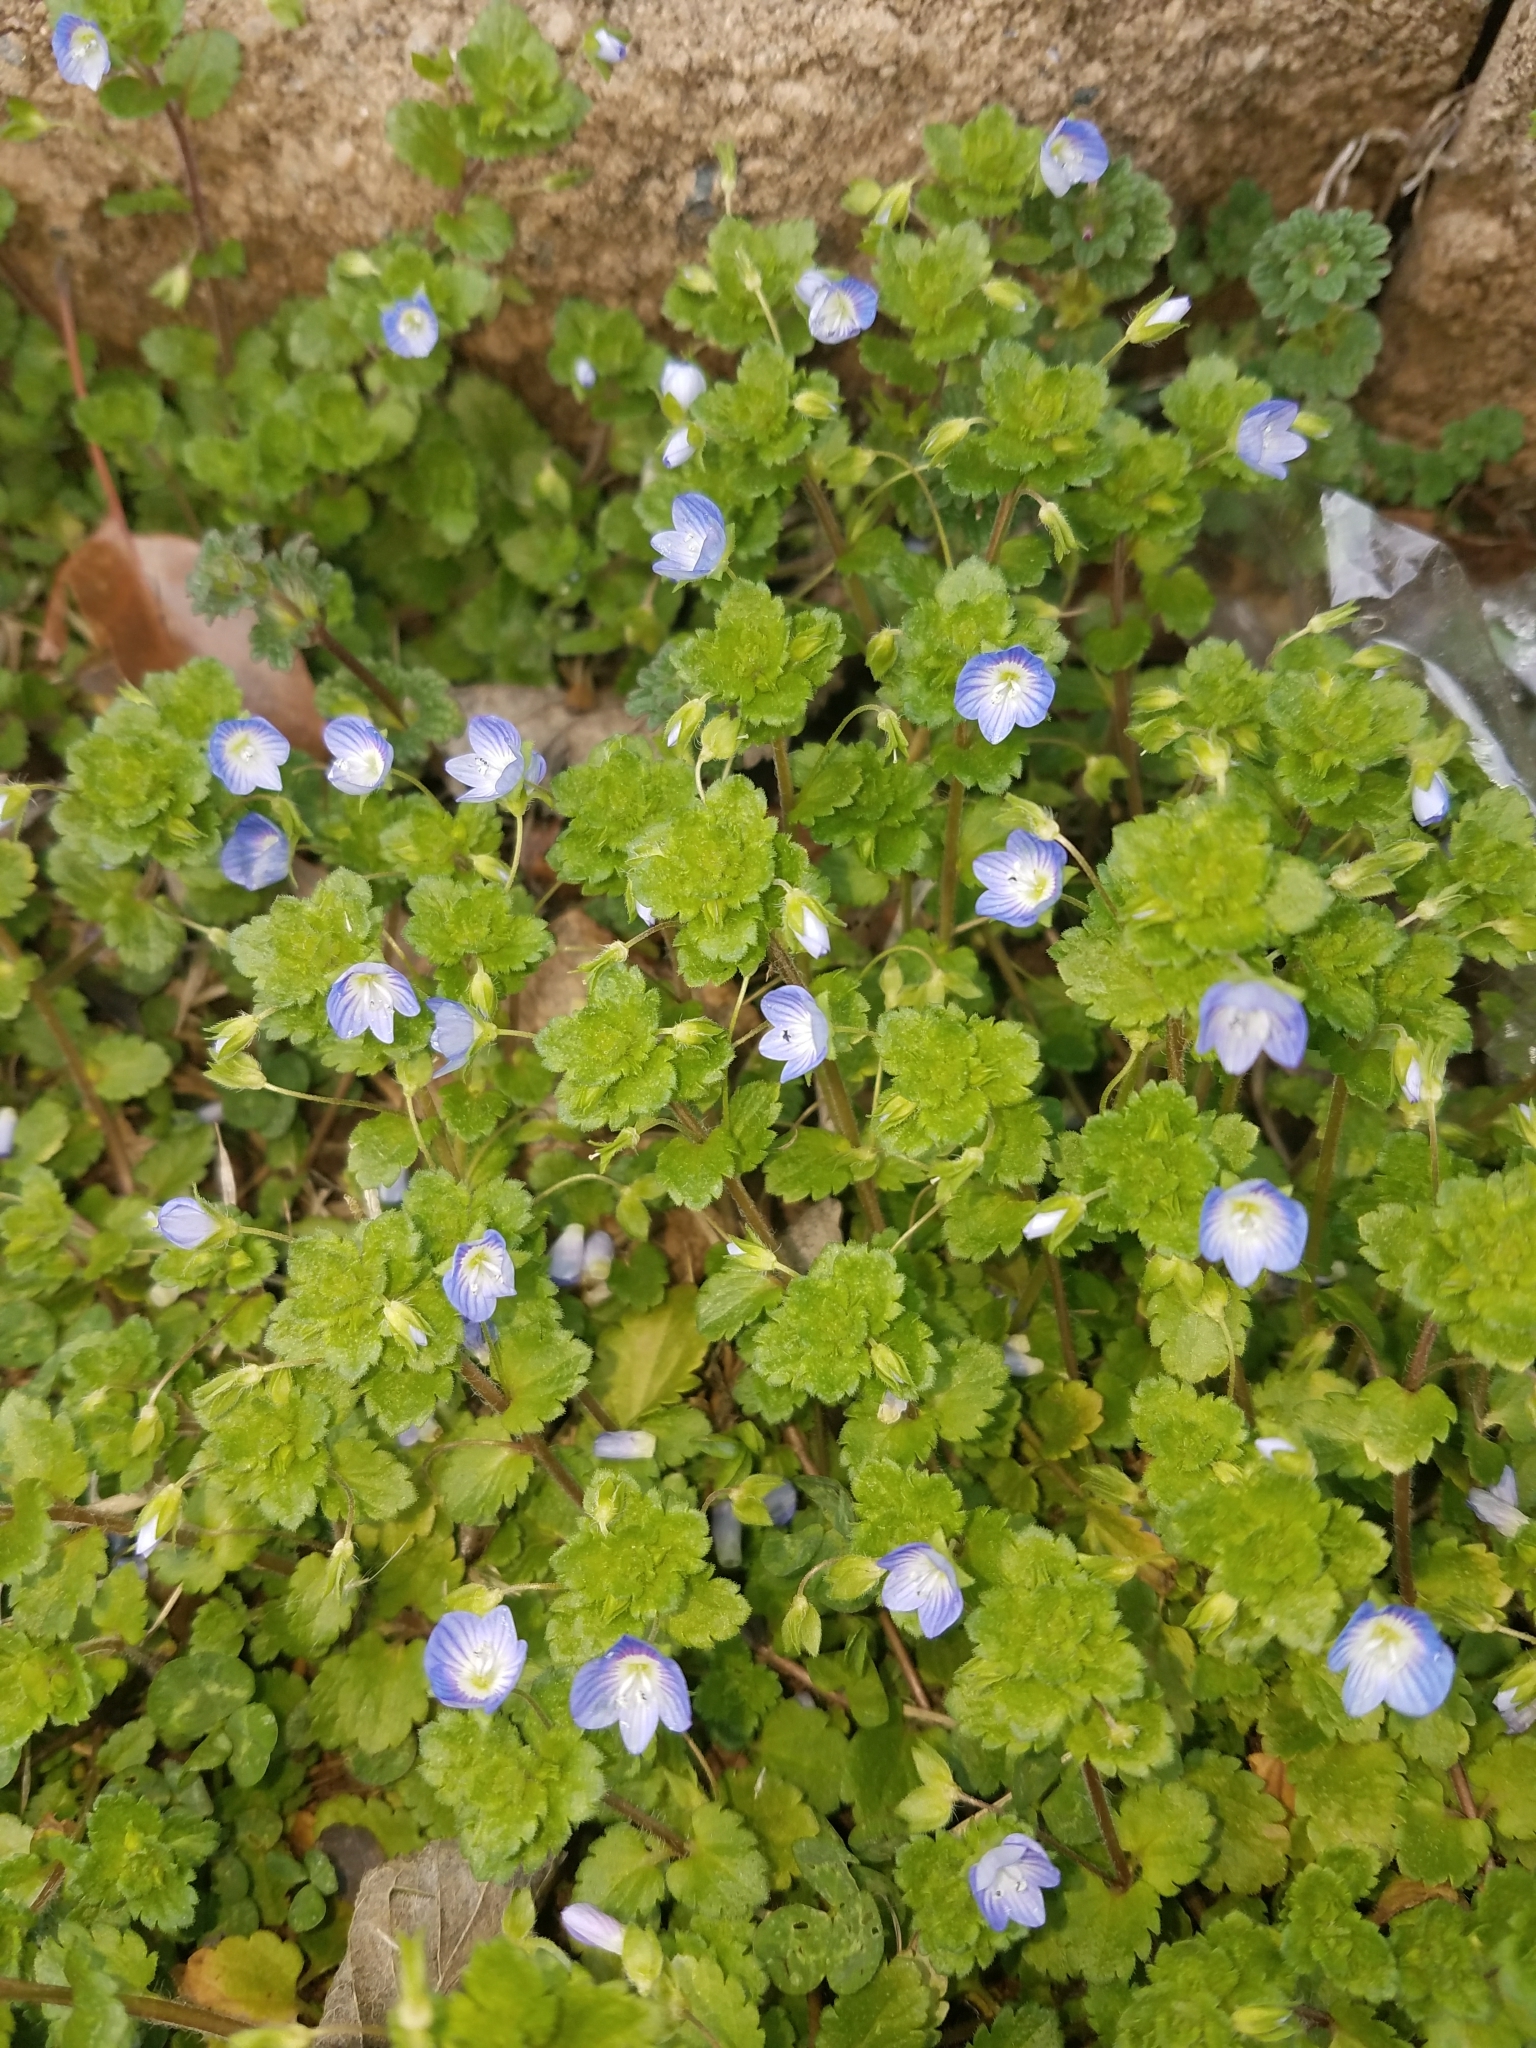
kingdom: Plantae
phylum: Tracheophyta
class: Magnoliopsida
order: Lamiales
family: Plantaginaceae
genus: Veronica
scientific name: Veronica persica
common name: Common field-speedwell
